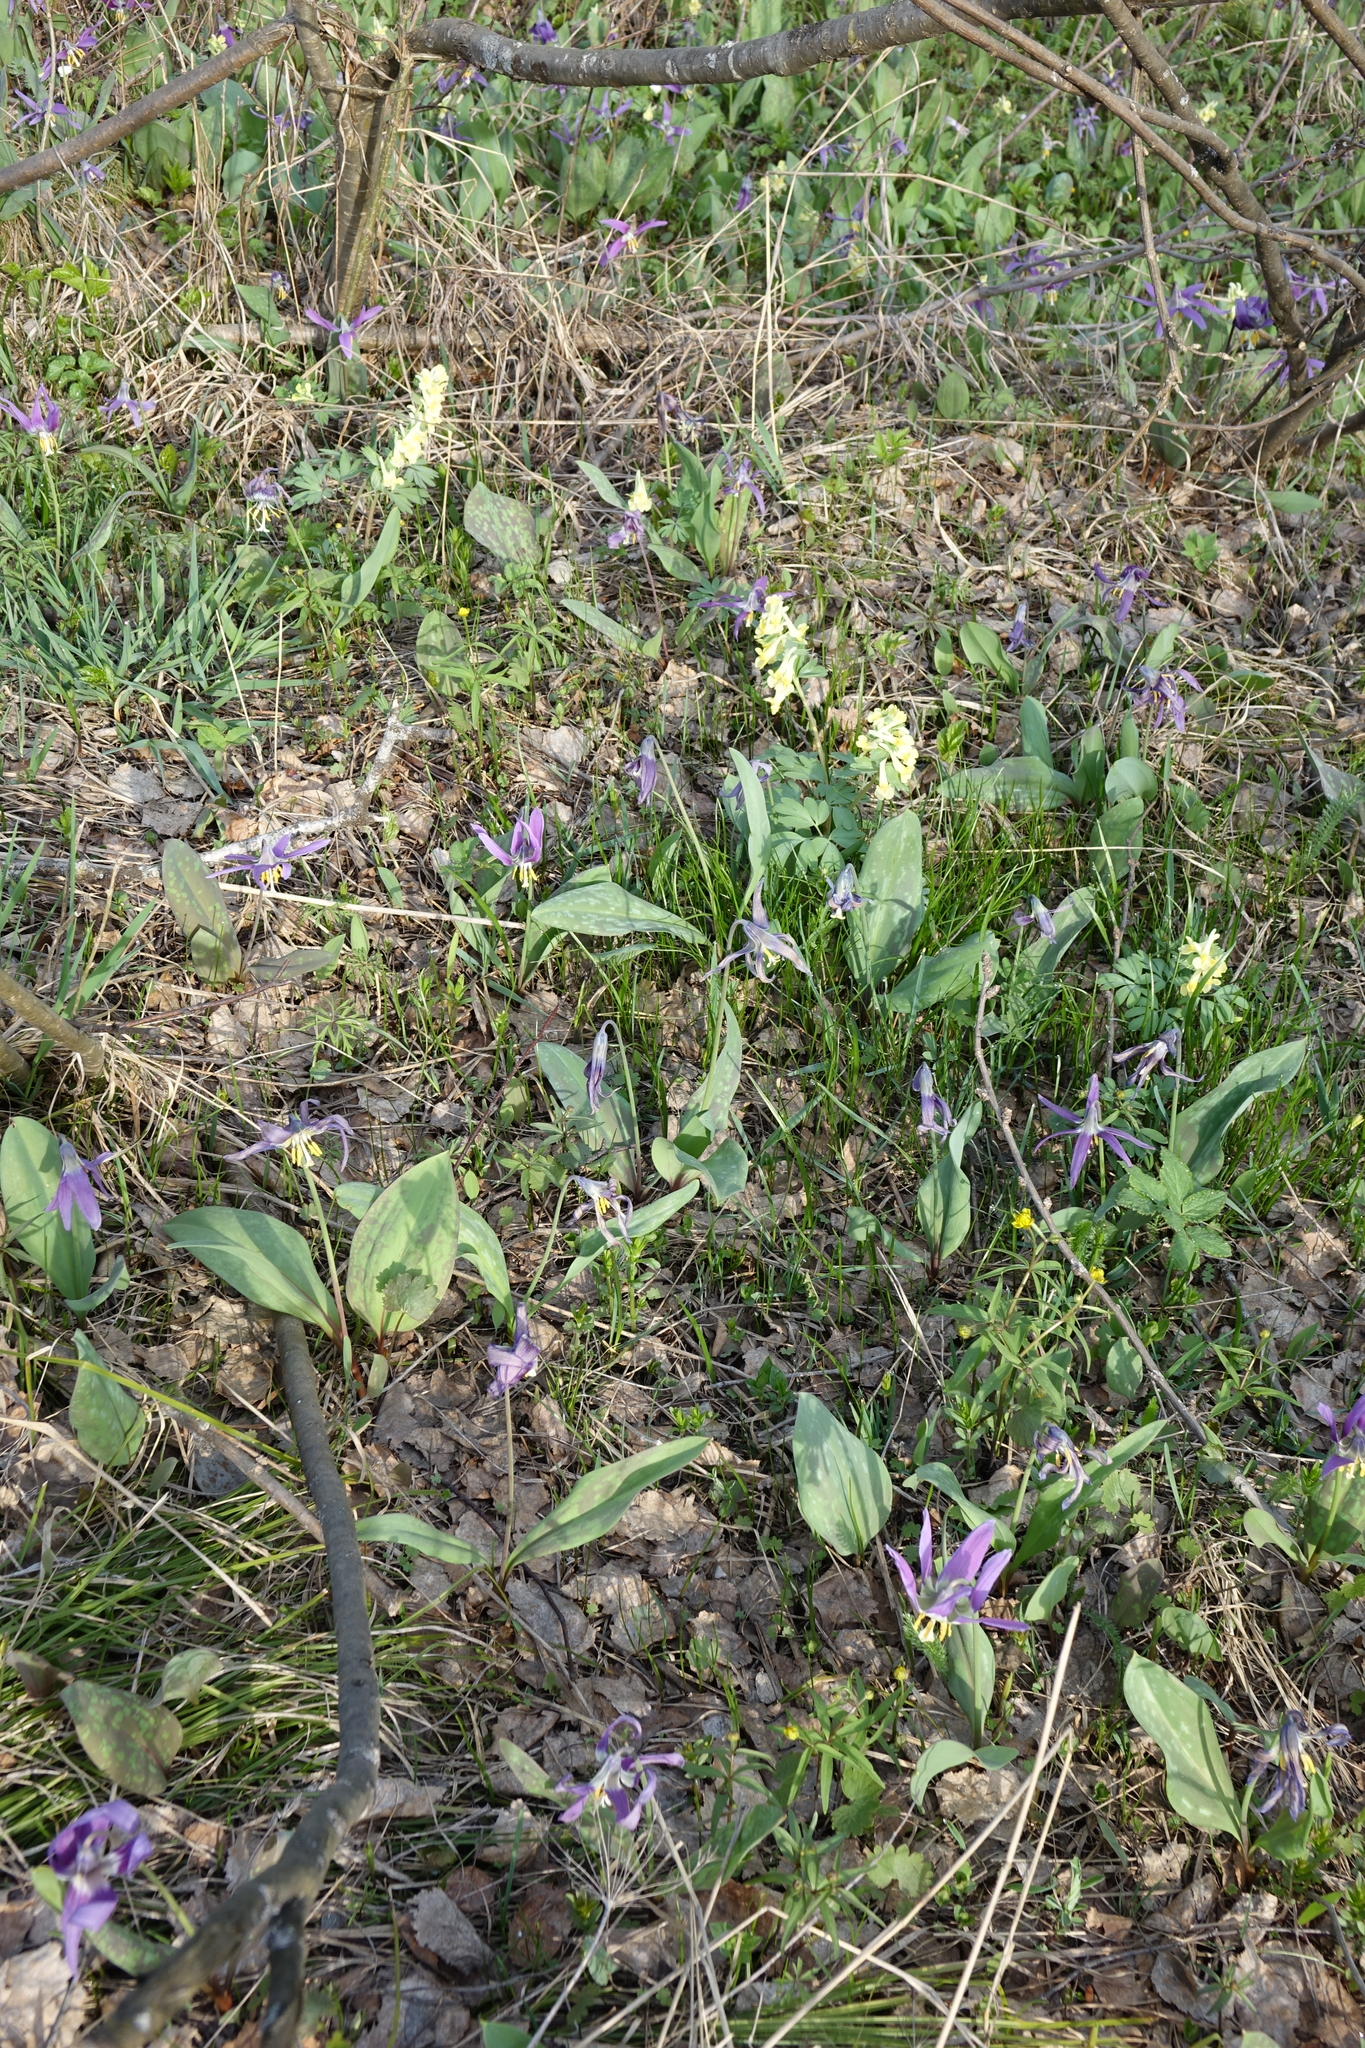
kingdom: Plantae
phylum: Tracheophyta
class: Magnoliopsida
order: Ranunculales
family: Papaveraceae
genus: Corydalis
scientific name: Corydalis bracteata
